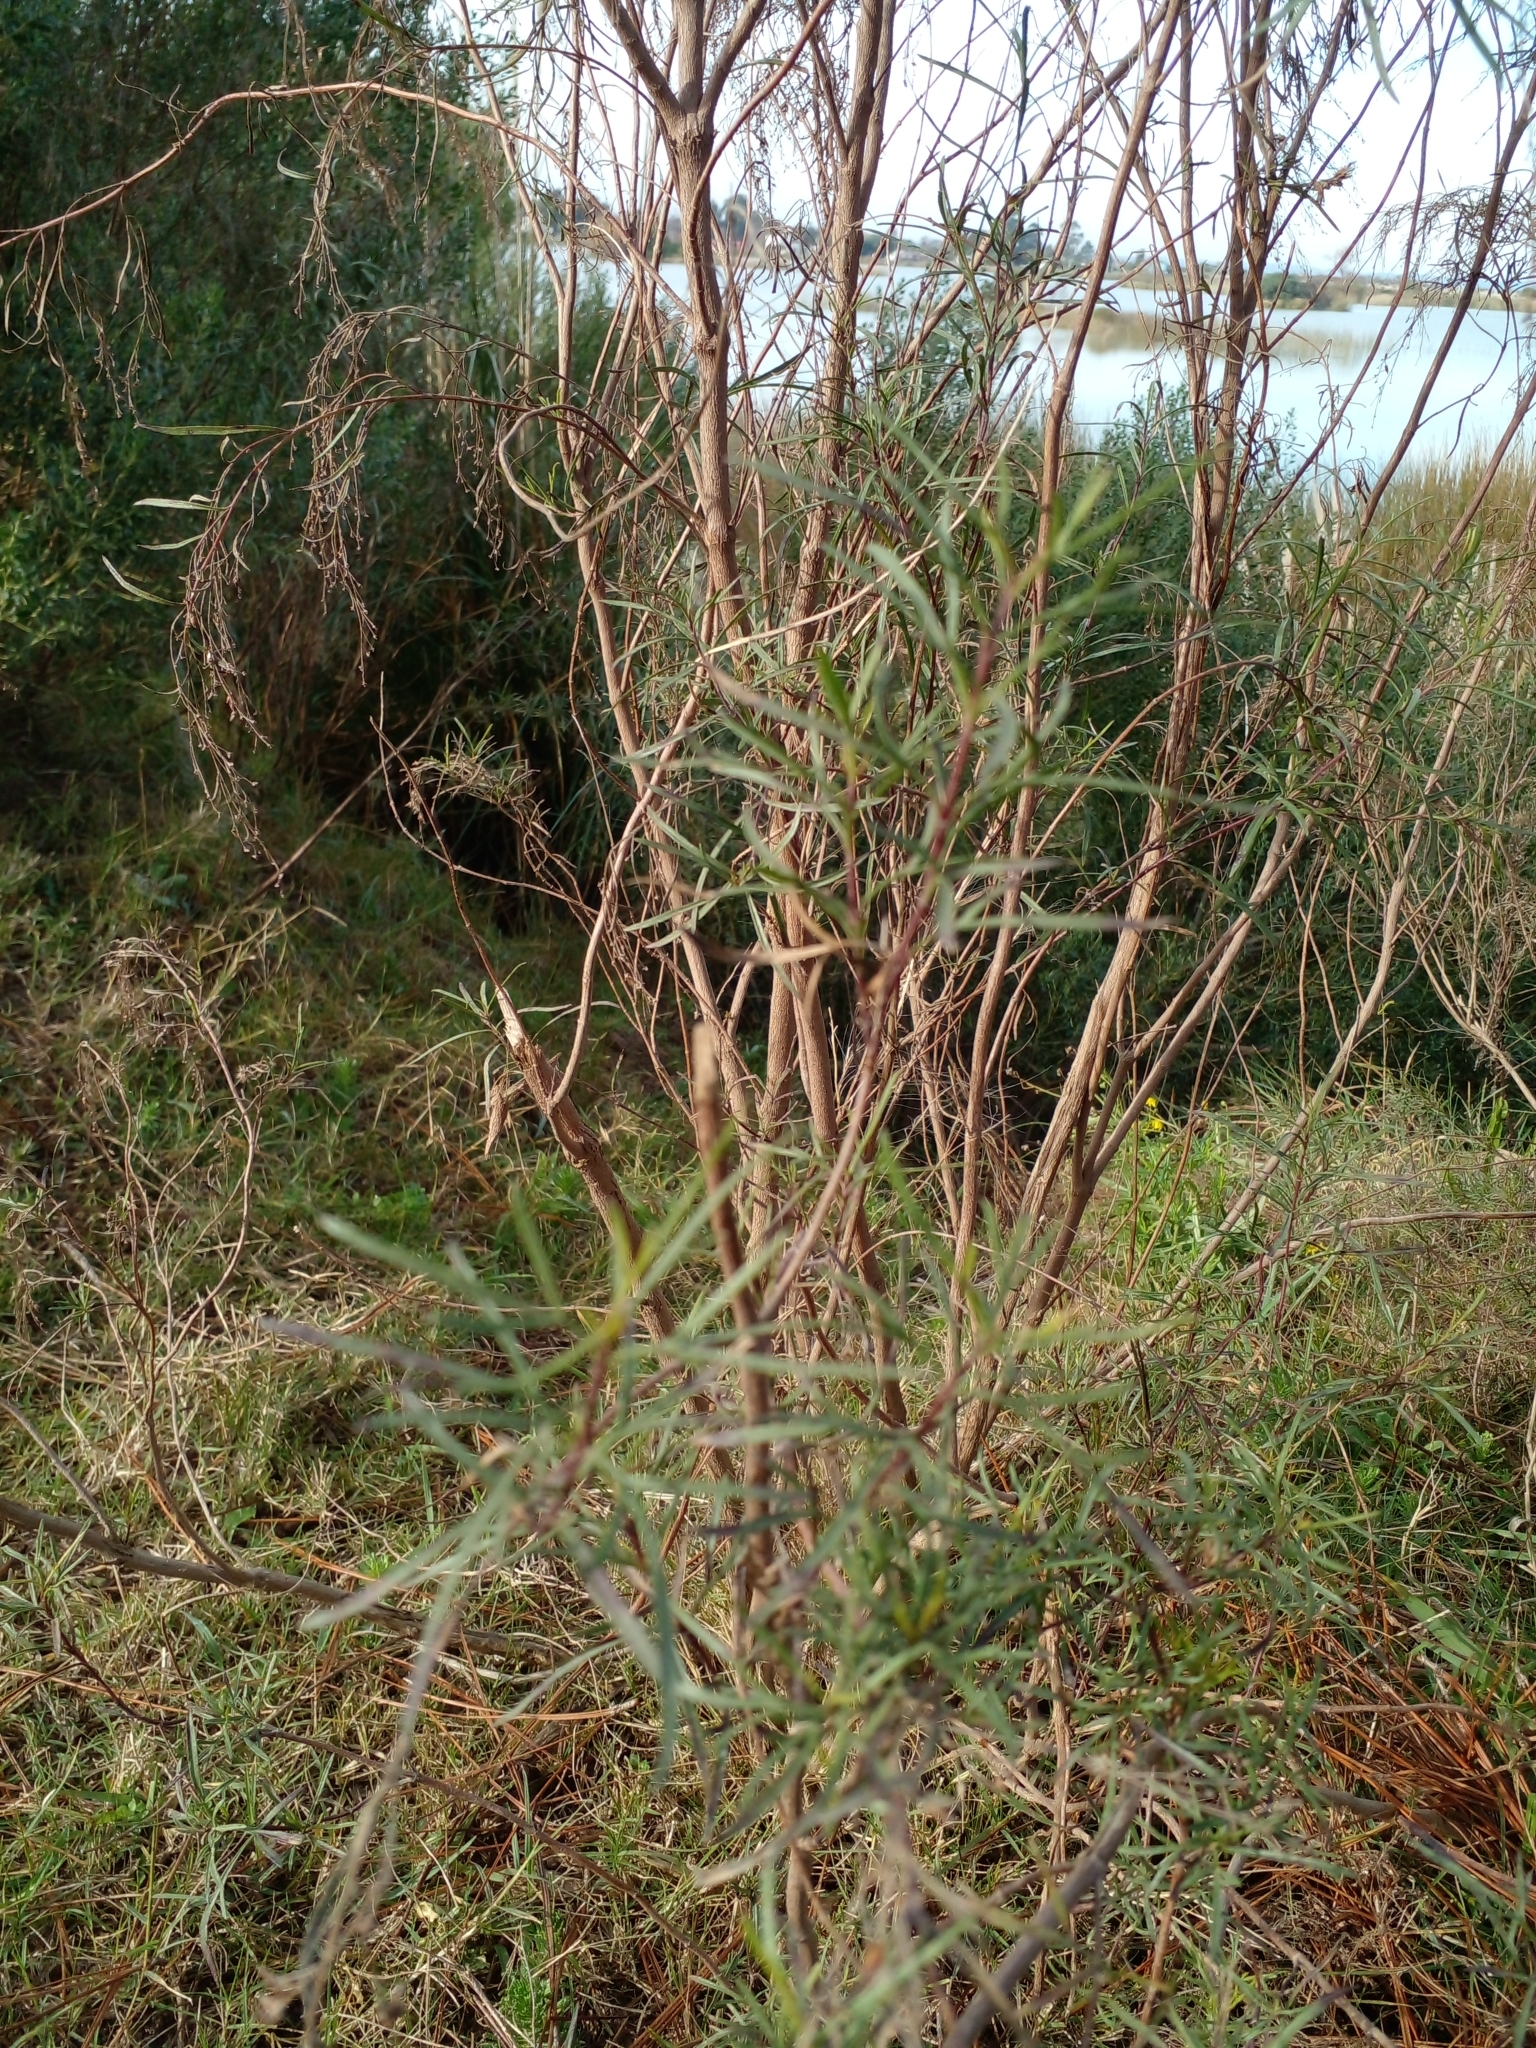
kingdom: Plantae
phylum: Tracheophyta
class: Magnoliopsida
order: Asterales
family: Asteraceae
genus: Acanthostyles
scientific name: Acanthostyles buniifolius
